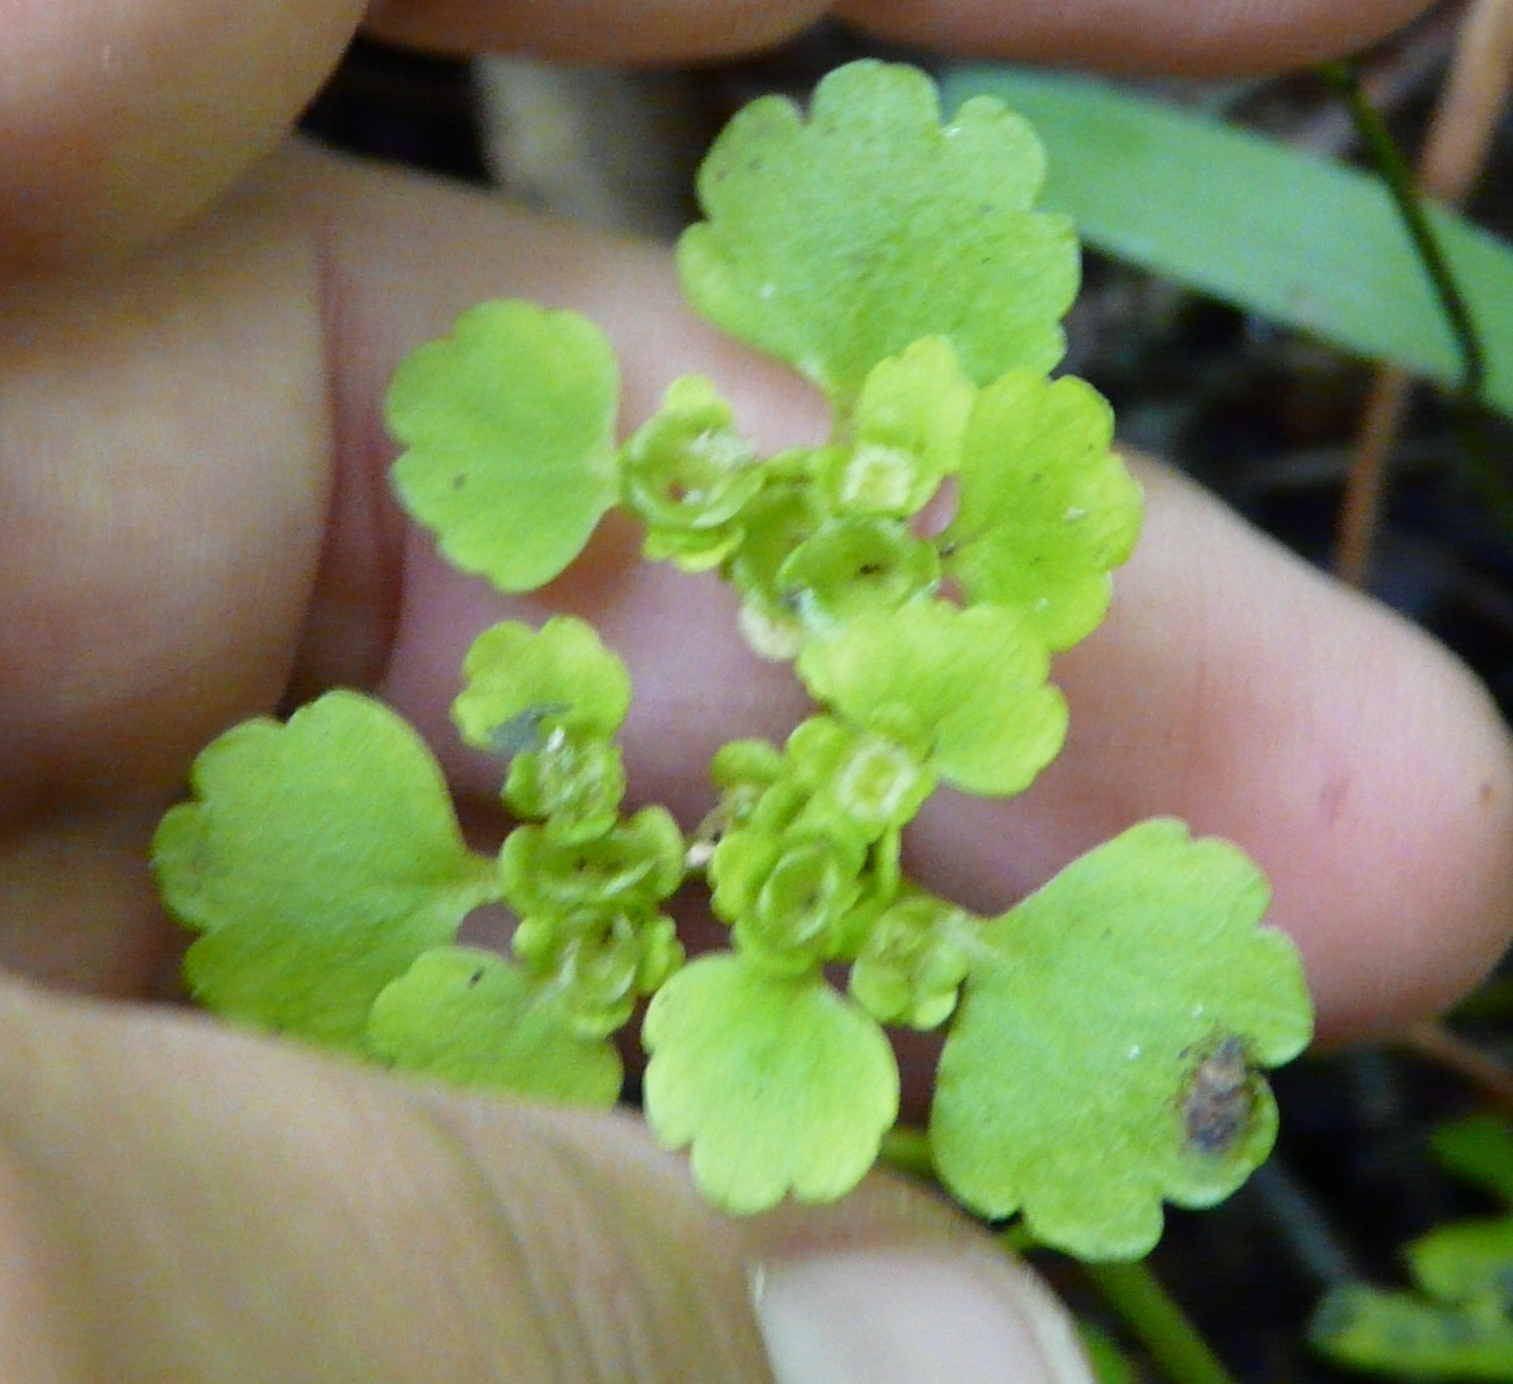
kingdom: Plantae
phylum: Tracheophyta
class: Magnoliopsida
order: Saxifragales
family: Saxifragaceae
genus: Chrysosplenium
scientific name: Chrysosplenium alternifolium
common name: Alternate-leaved golden-saxifrage
